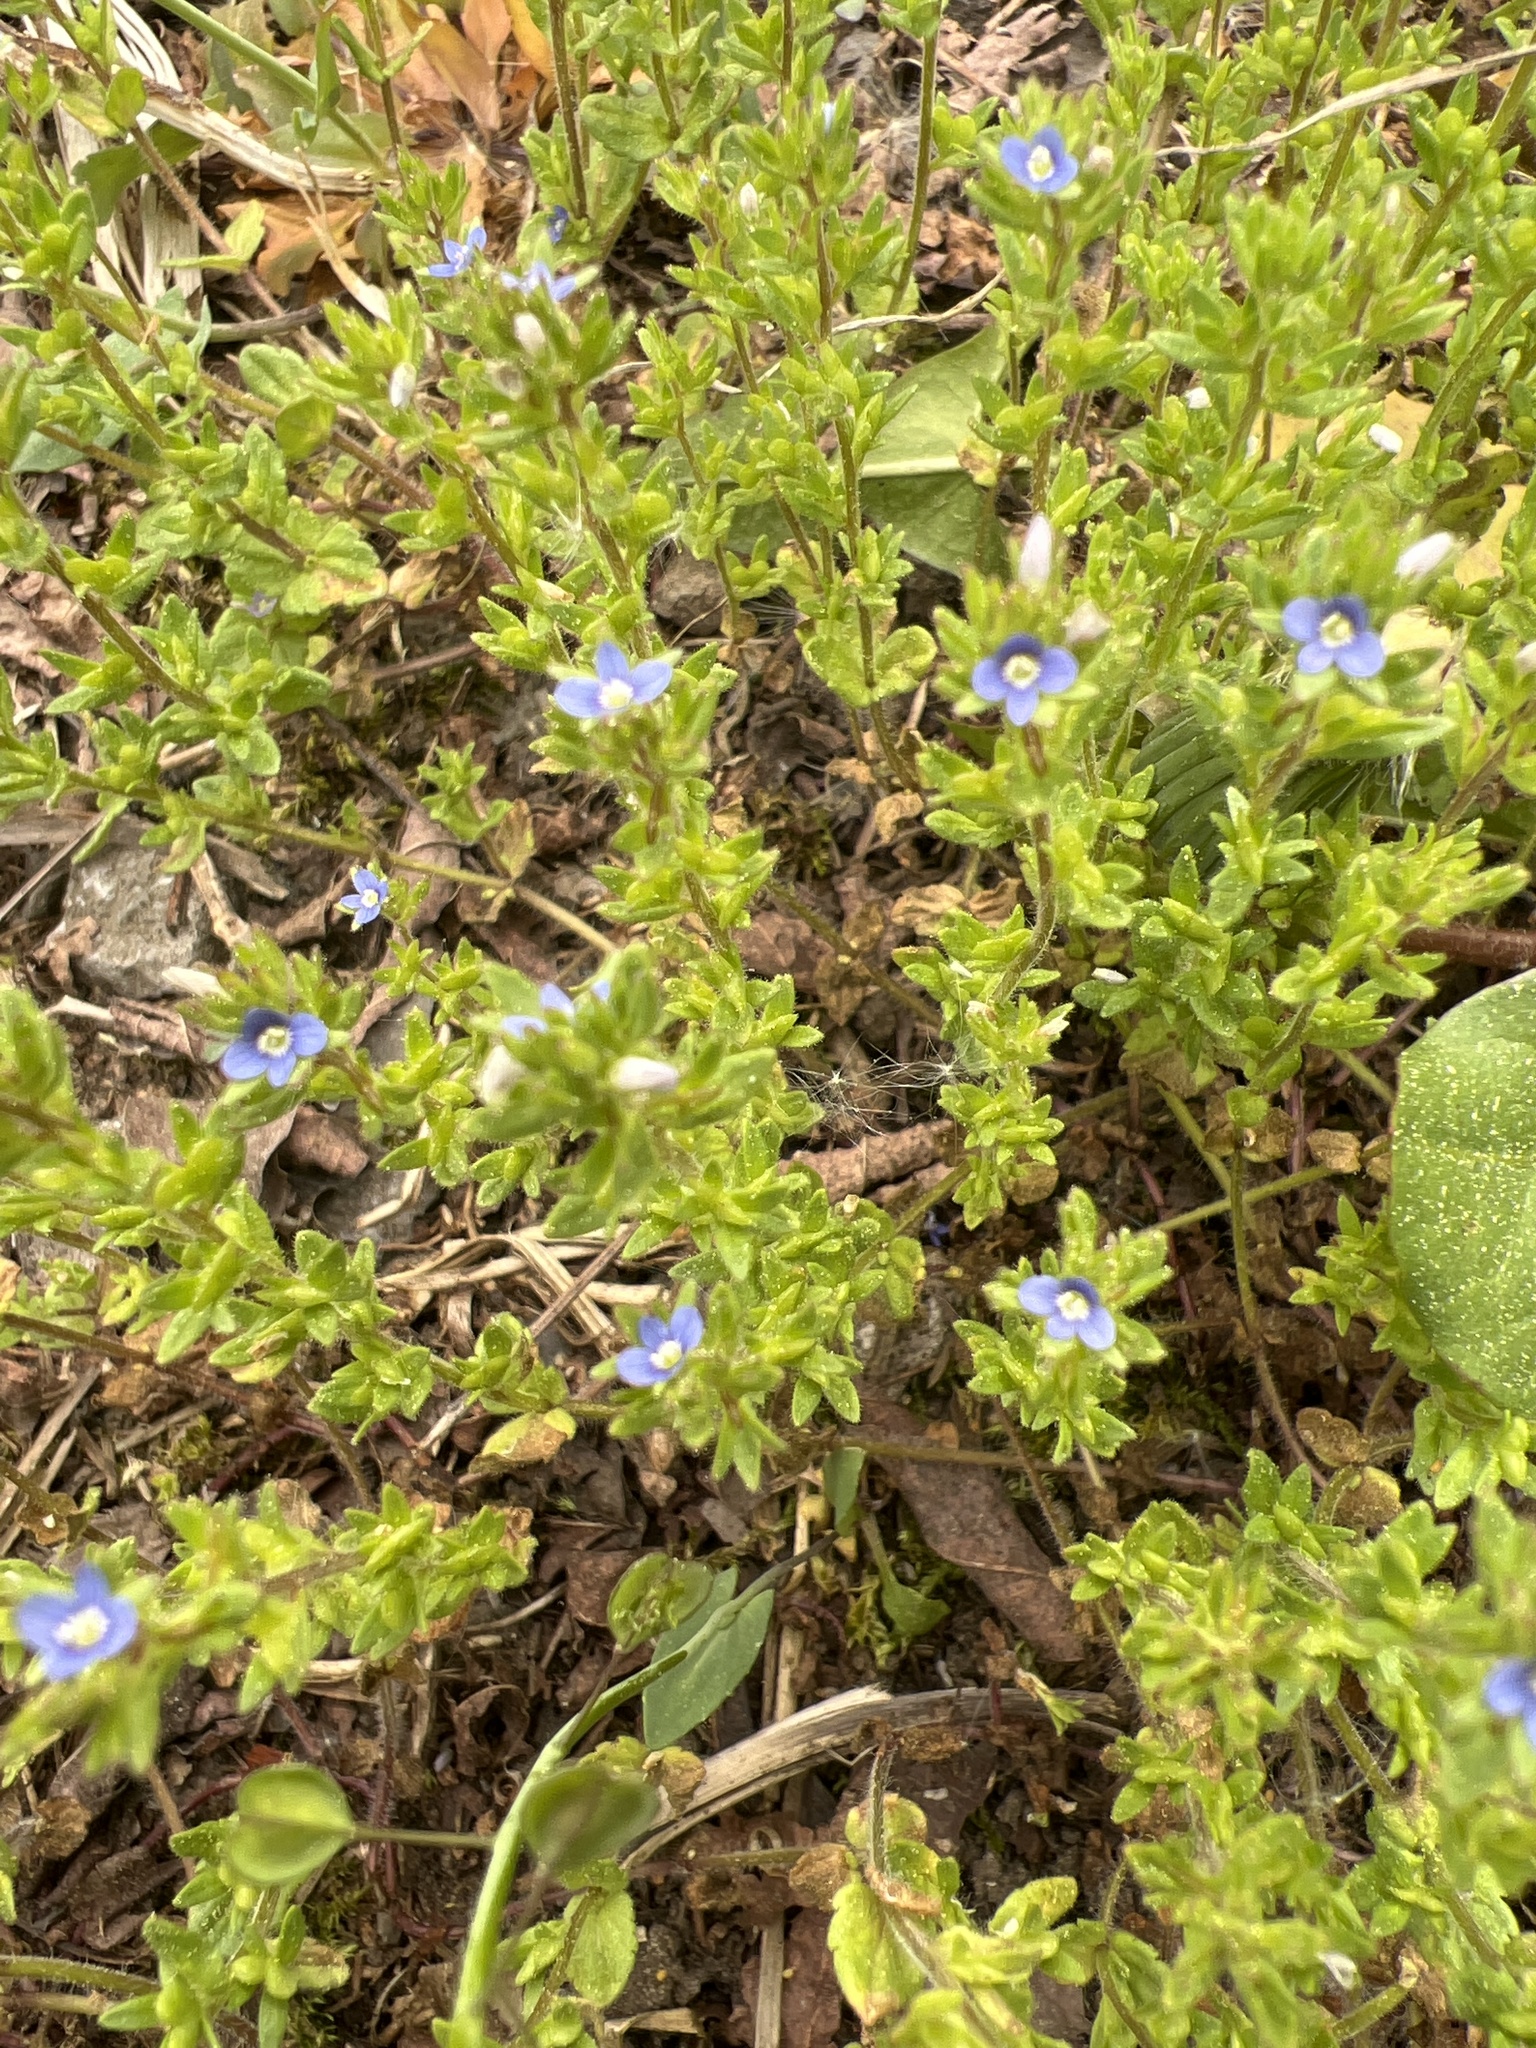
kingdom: Plantae
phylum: Tracheophyta
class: Magnoliopsida
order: Lamiales
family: Plantaginaceae
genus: Veronica
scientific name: Veronica arvensis
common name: Corn speedwell
